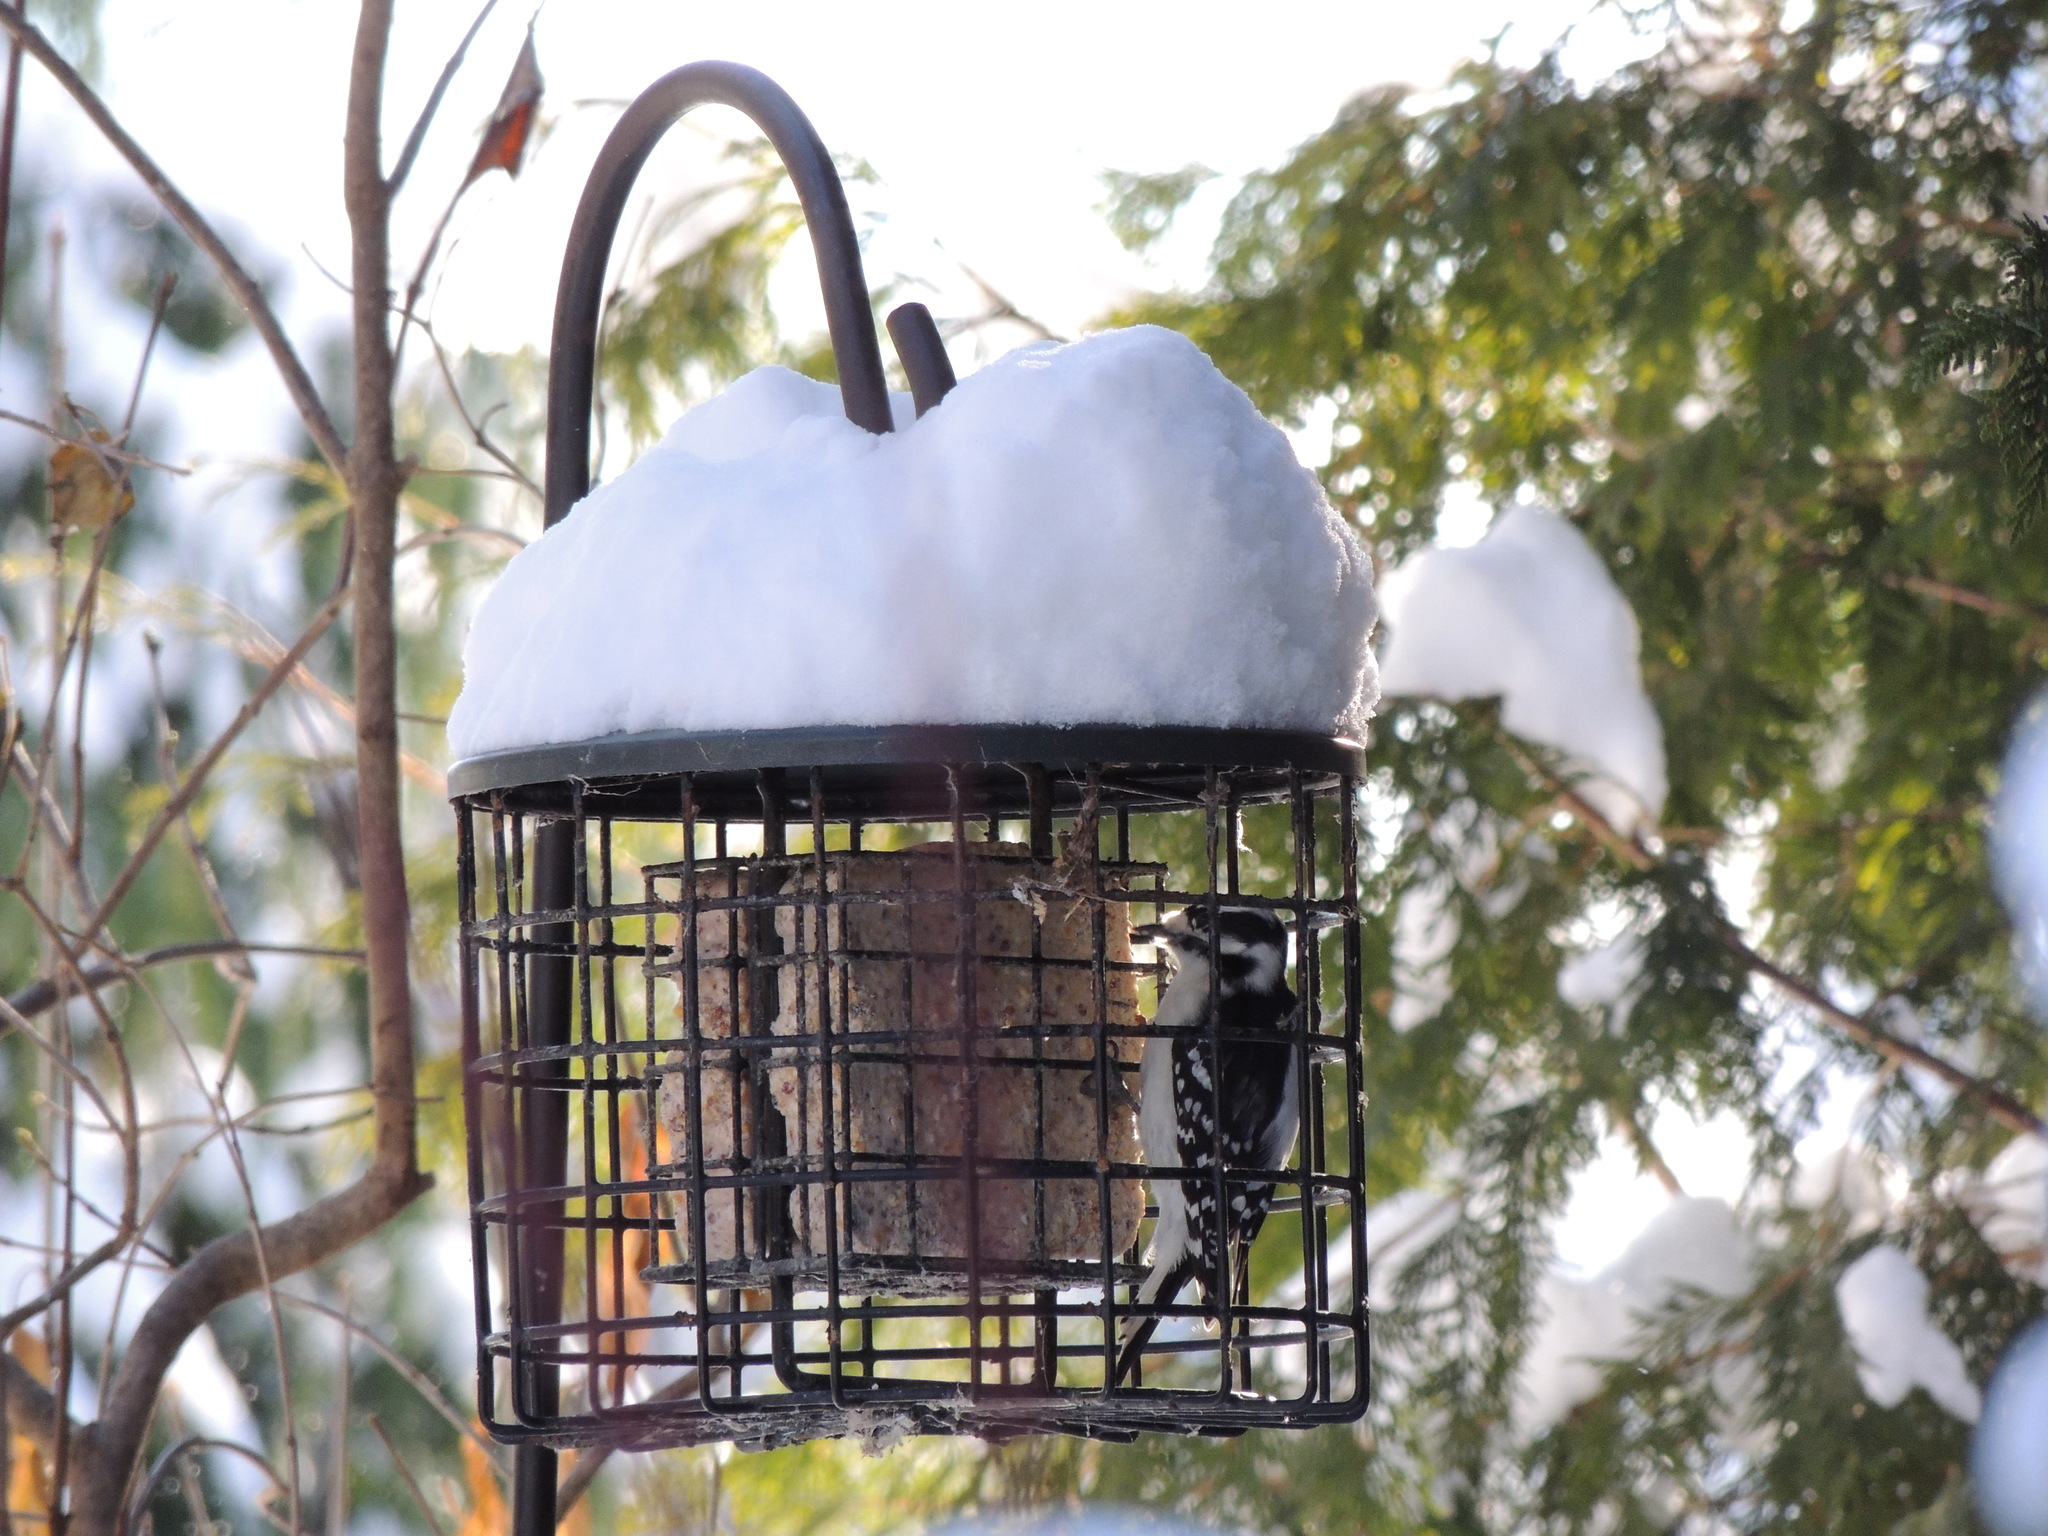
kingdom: Animalia
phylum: Chordata
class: Aves
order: Piciformes
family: Picidae
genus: Dryobates
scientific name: Dryobates pubescens
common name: Downy woodpecker
